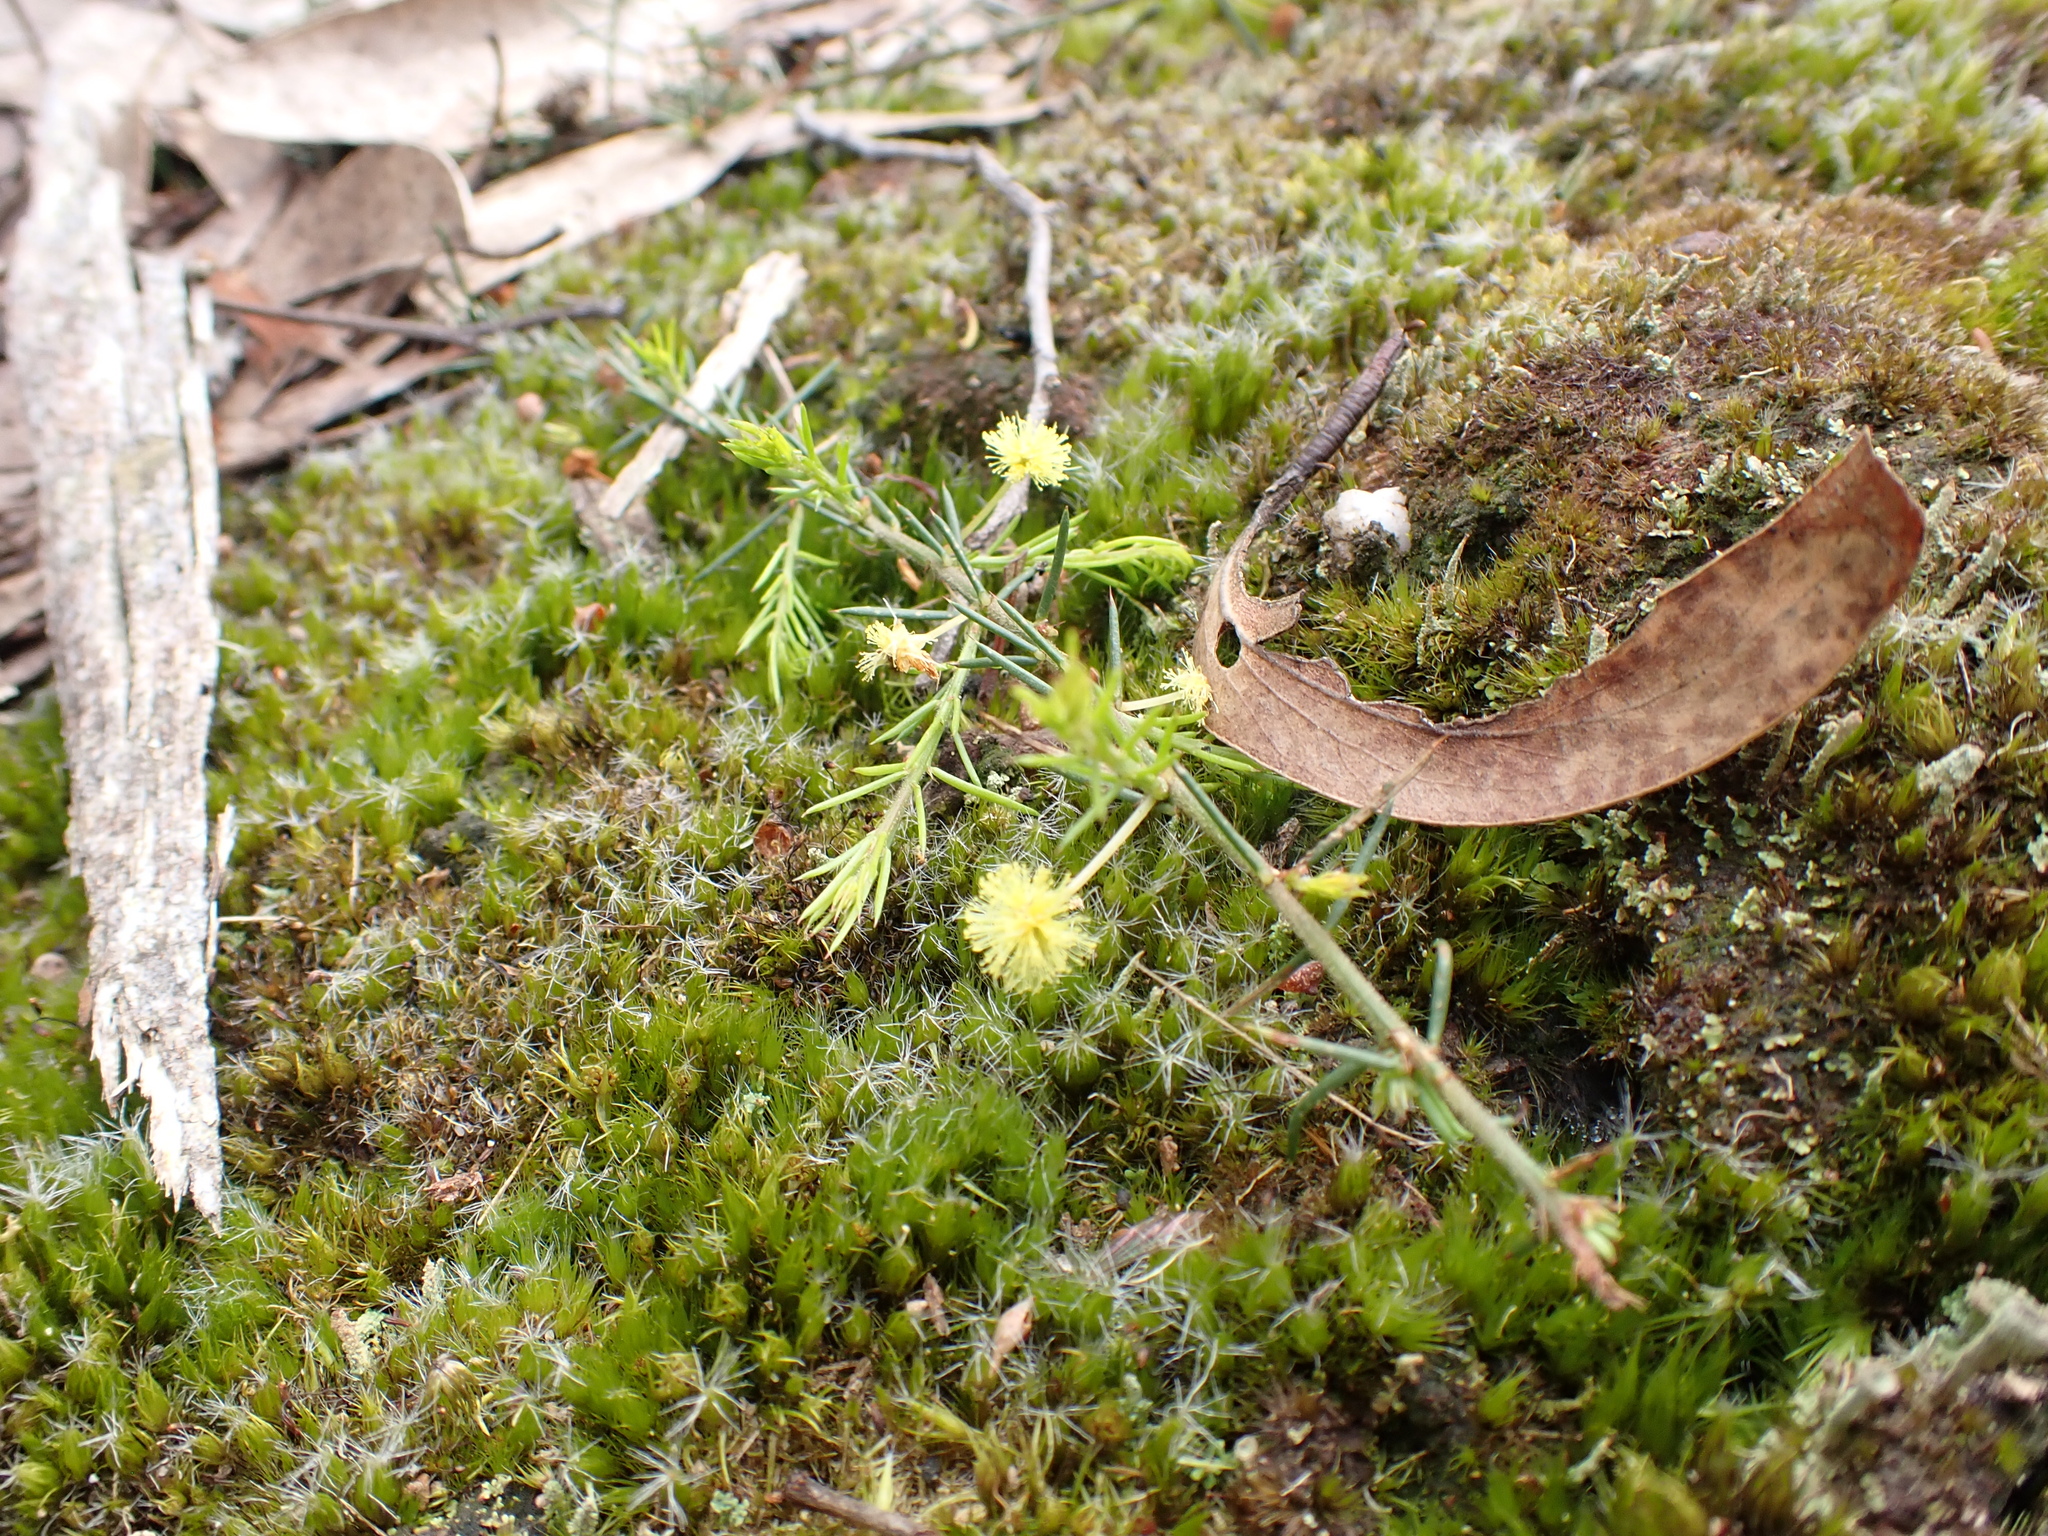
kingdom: Plantae
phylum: Tracheophyta
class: Magnoliopsida
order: Fabales
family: Fabaceae
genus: Acacia
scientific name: Acacia aculeatissima
